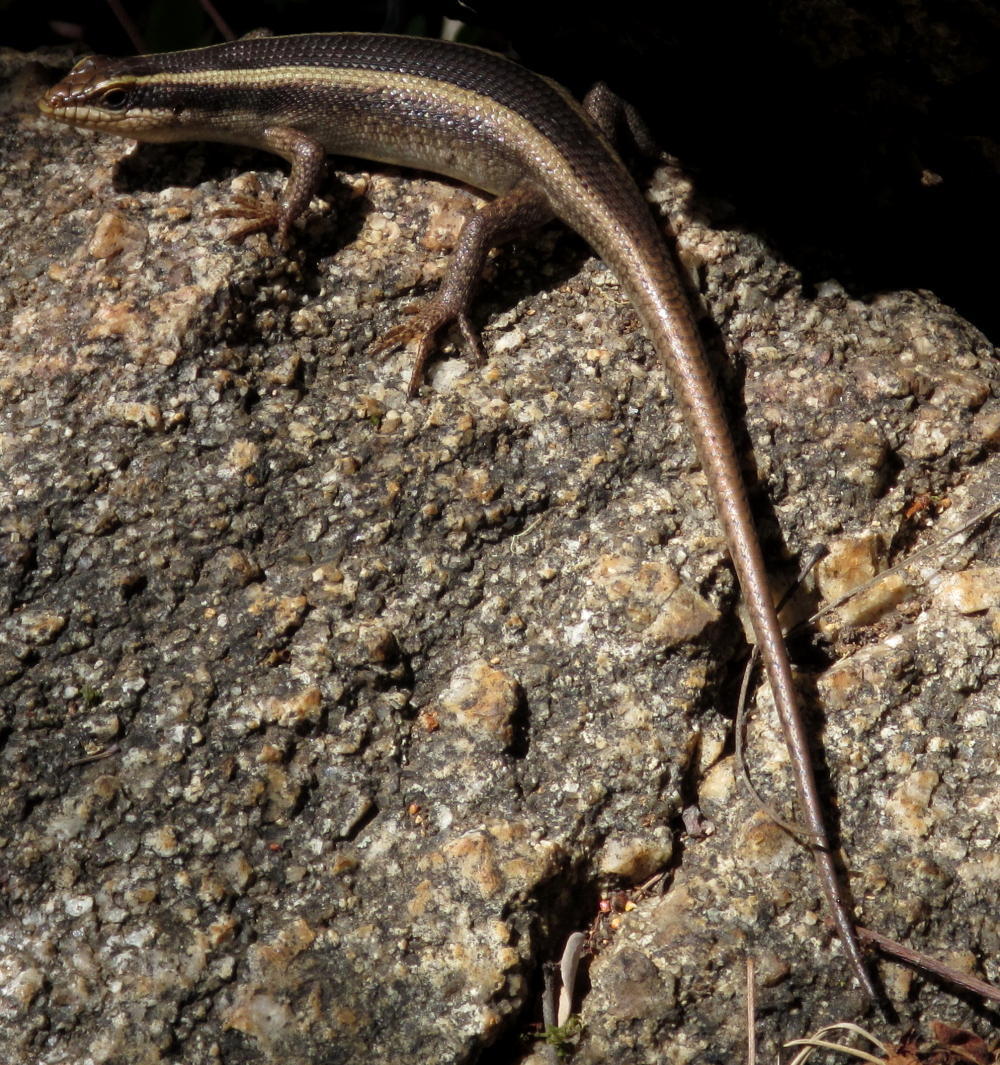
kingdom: Animalia
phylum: Chordata
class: Squamata
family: Scincidae
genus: Trachylepis
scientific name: Trachylepis striata
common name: African striped mabuya
